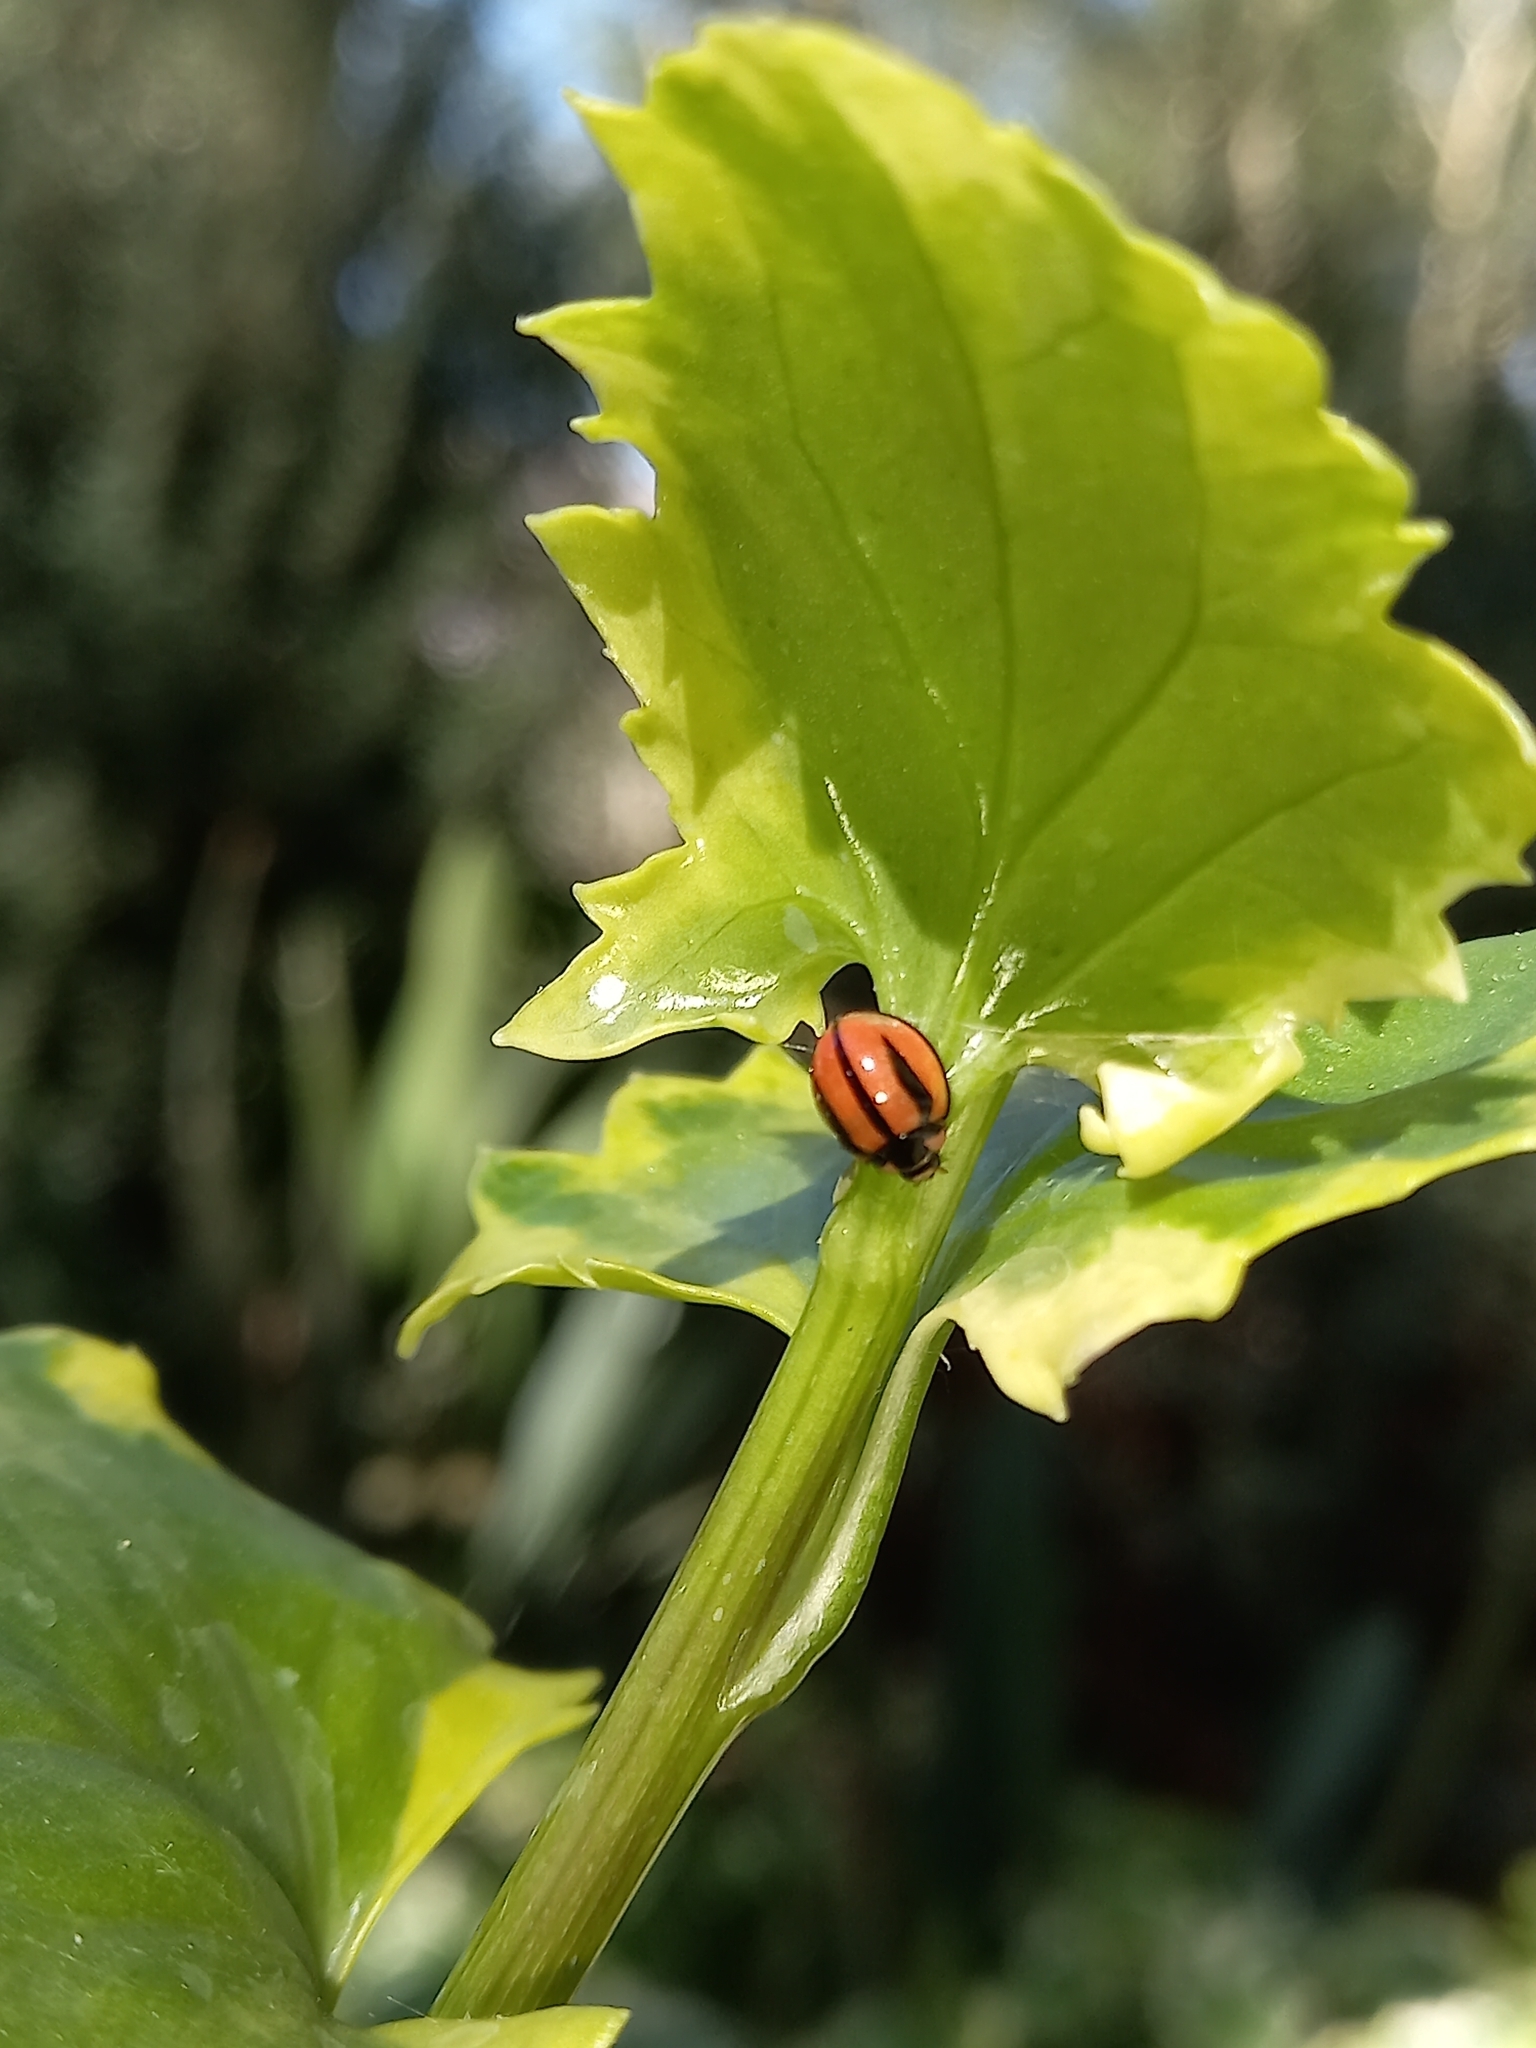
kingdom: Animalia
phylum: Arthropoda
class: Insecta
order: Coleoptera
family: Coccinellidae
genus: Cheilomenes
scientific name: Cheilomenes propinqua
